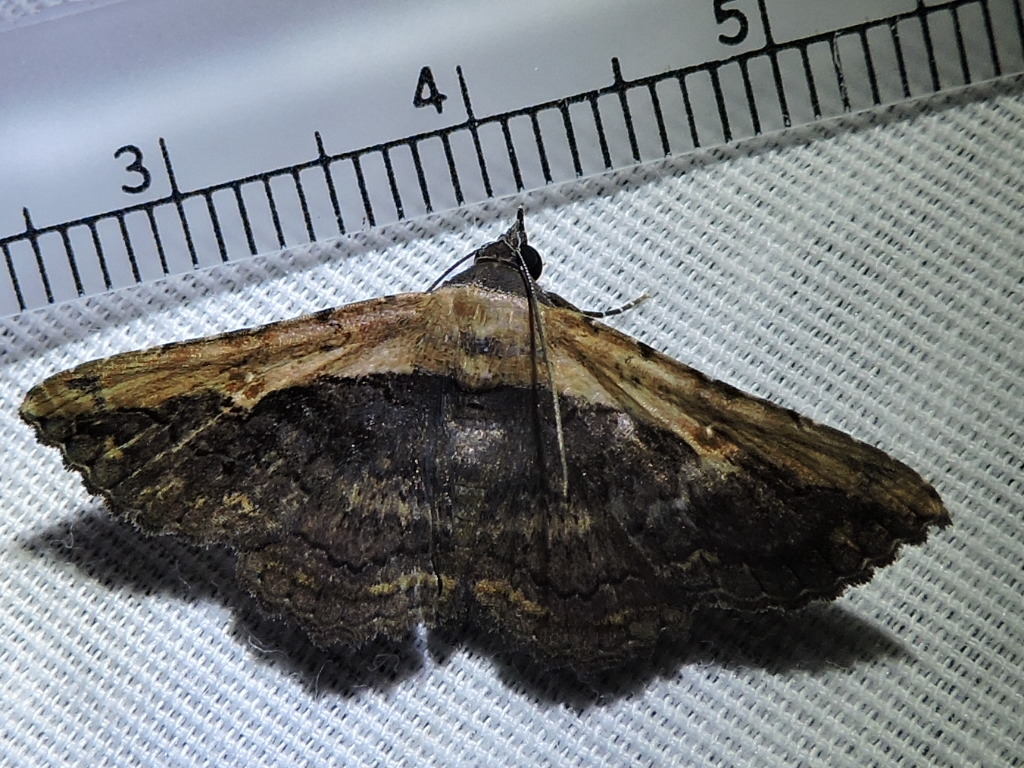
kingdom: Animalia
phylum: Arthropoda
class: Insecta
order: Lepidoptera
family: Erebidae
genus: Selenisa
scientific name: Selenisa sueroides
